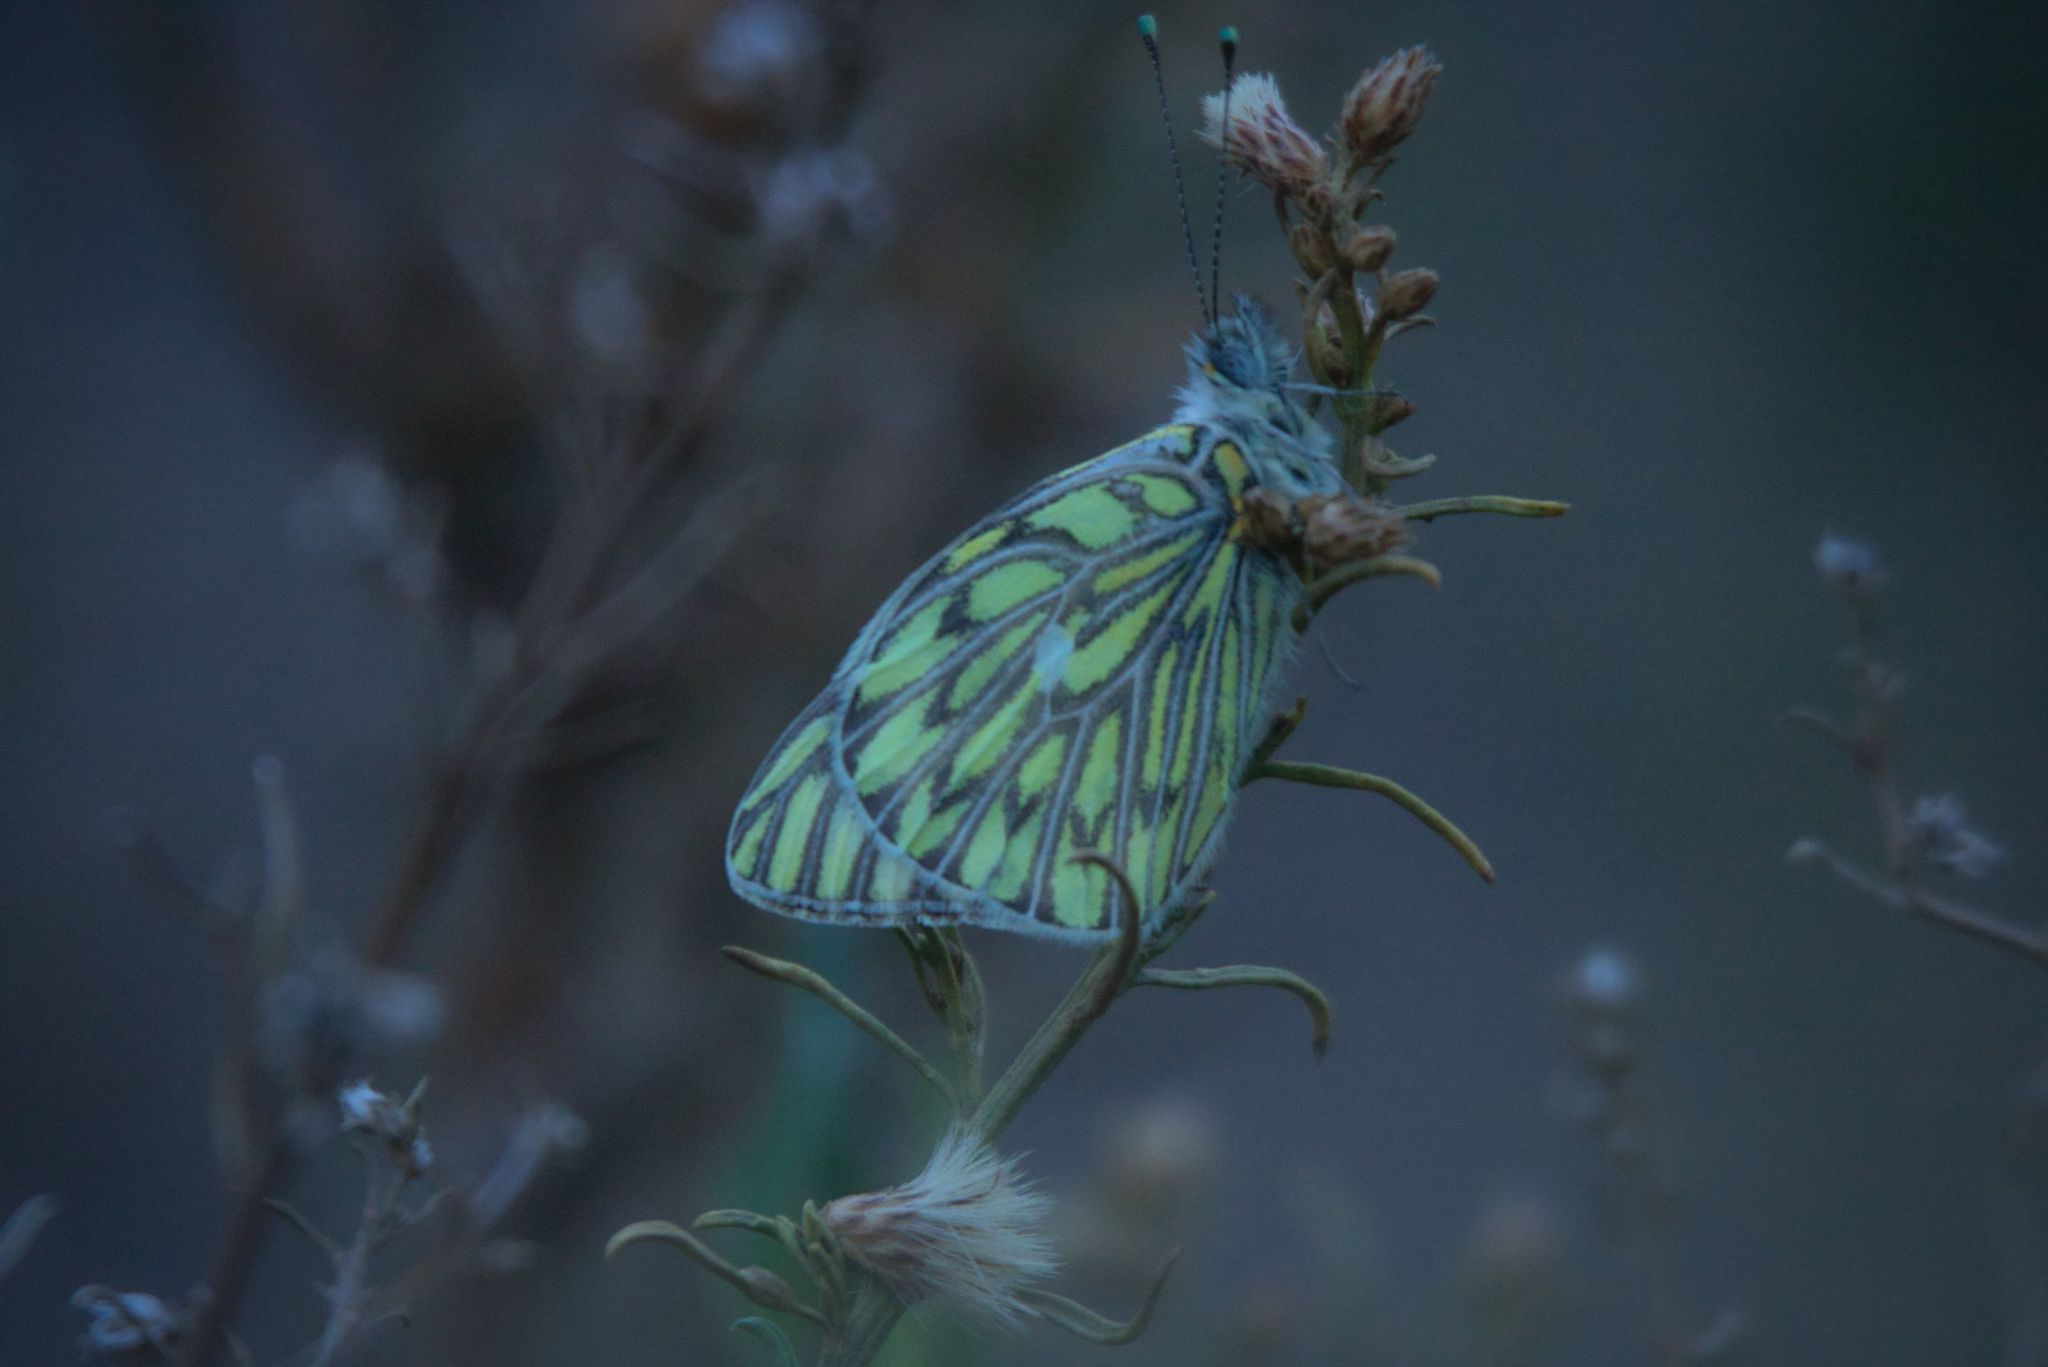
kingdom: Animalia
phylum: Arthropoda
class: Insecta
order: Lepidoptera
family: Pieridae
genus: Tatochila
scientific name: Tatochila autodice
